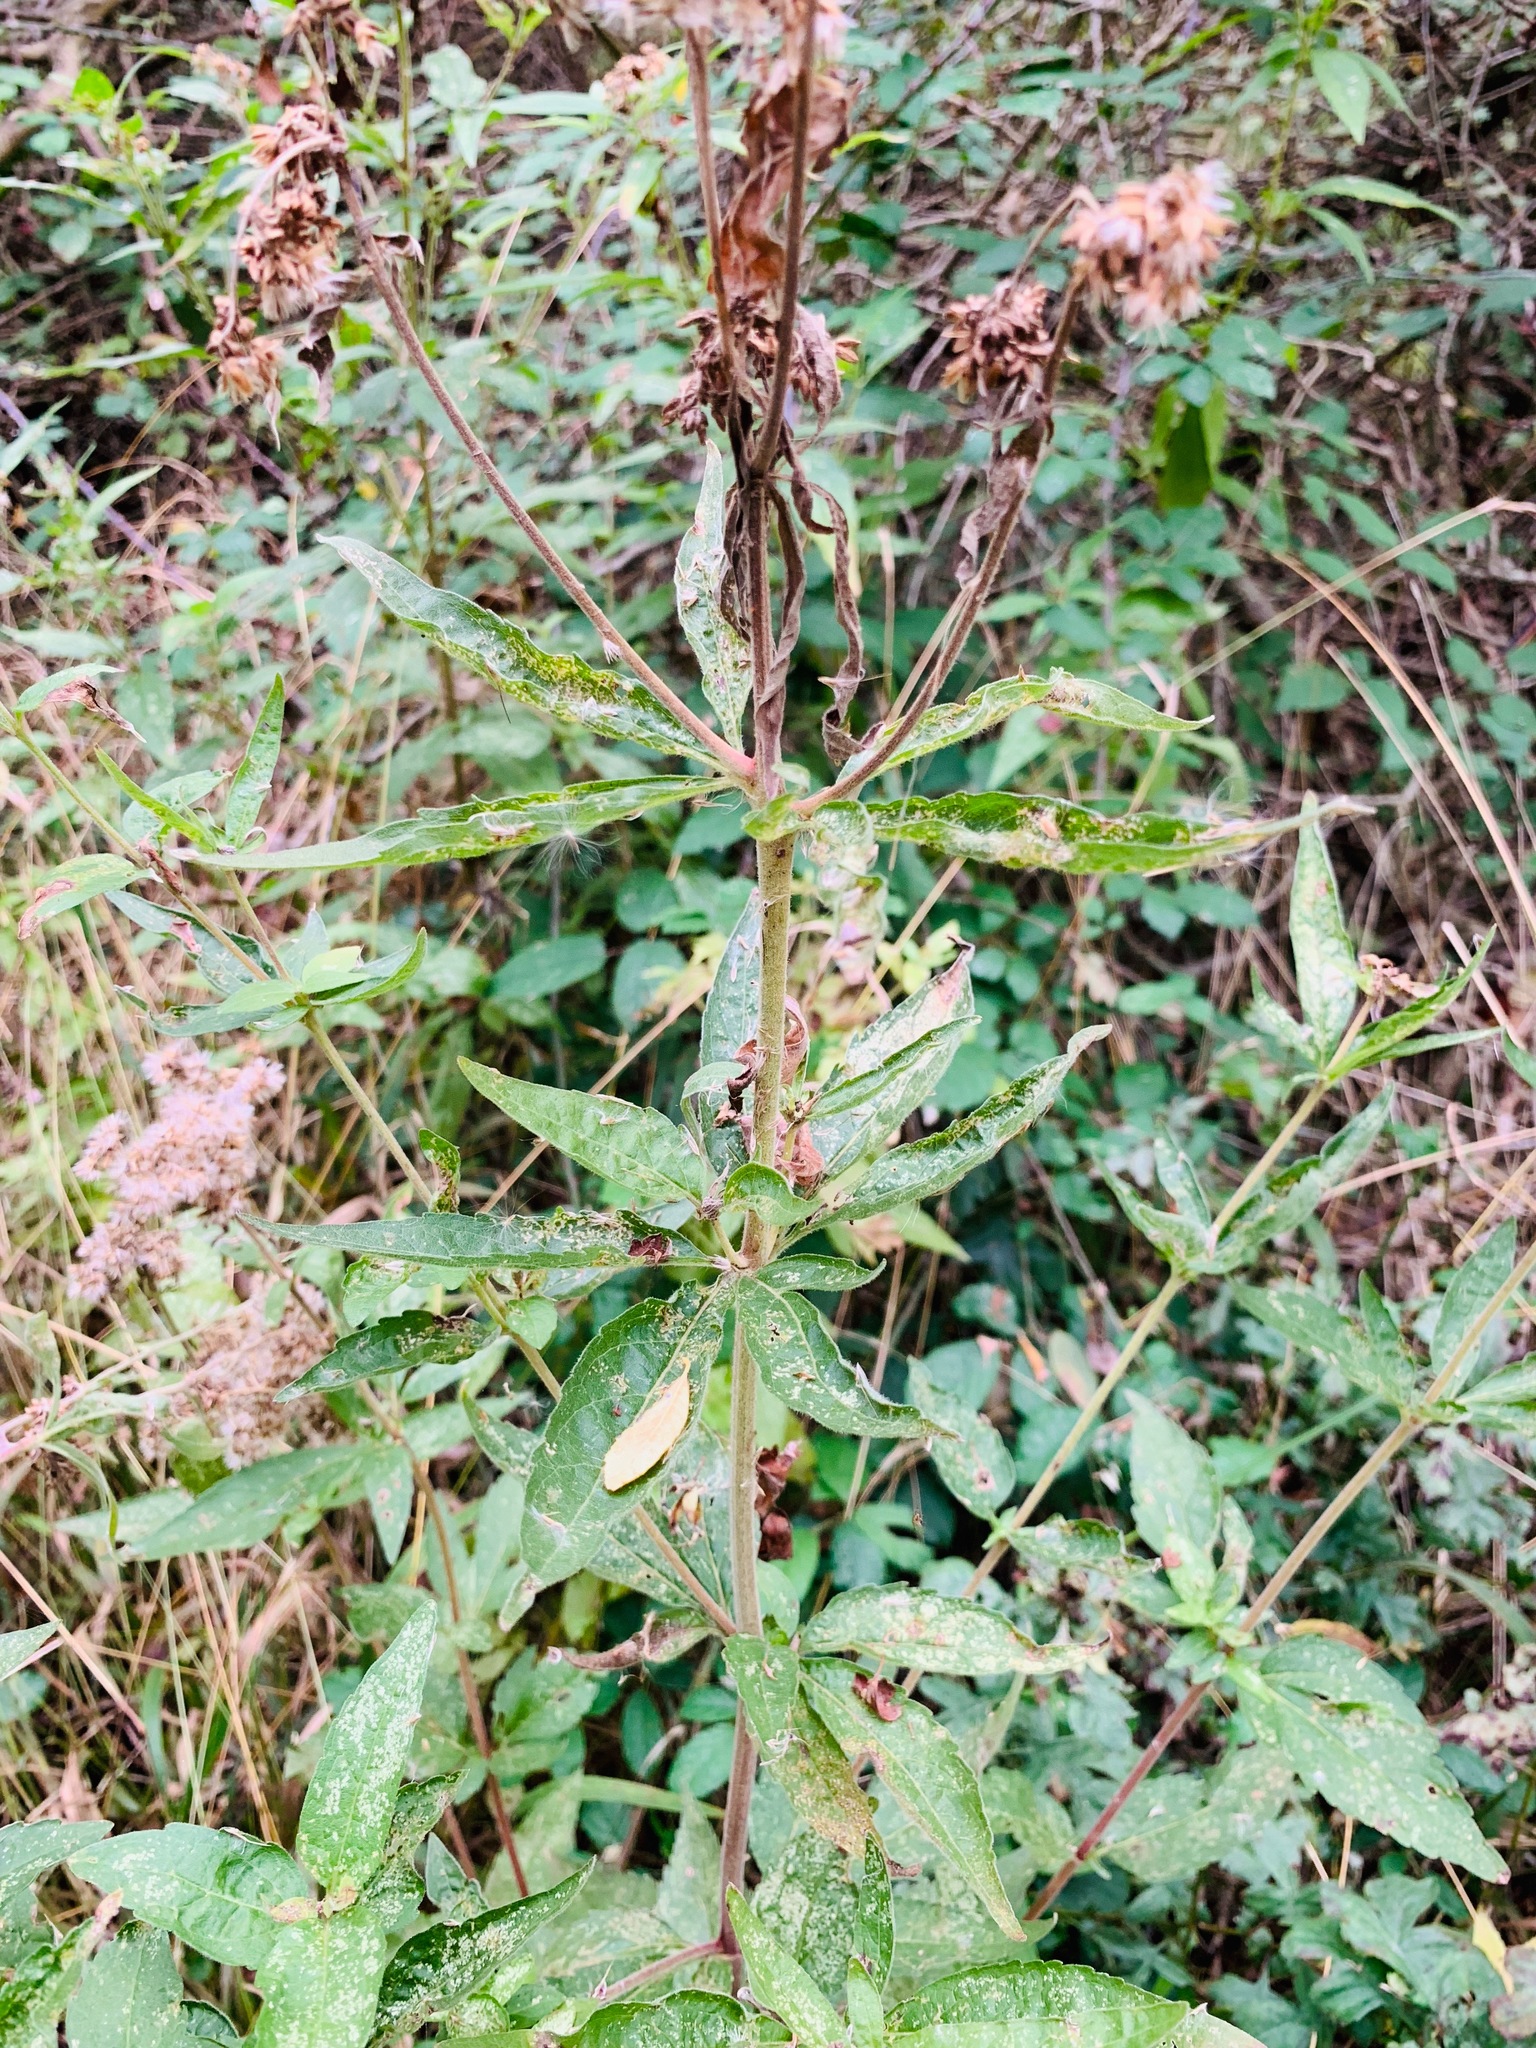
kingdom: Plantae
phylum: Tracheophyta
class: Magnoliopsida
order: Asterales
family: Asteraceae
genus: Eupatorium
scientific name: Eupatorium cannabinum
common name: Hemp-agrimony
